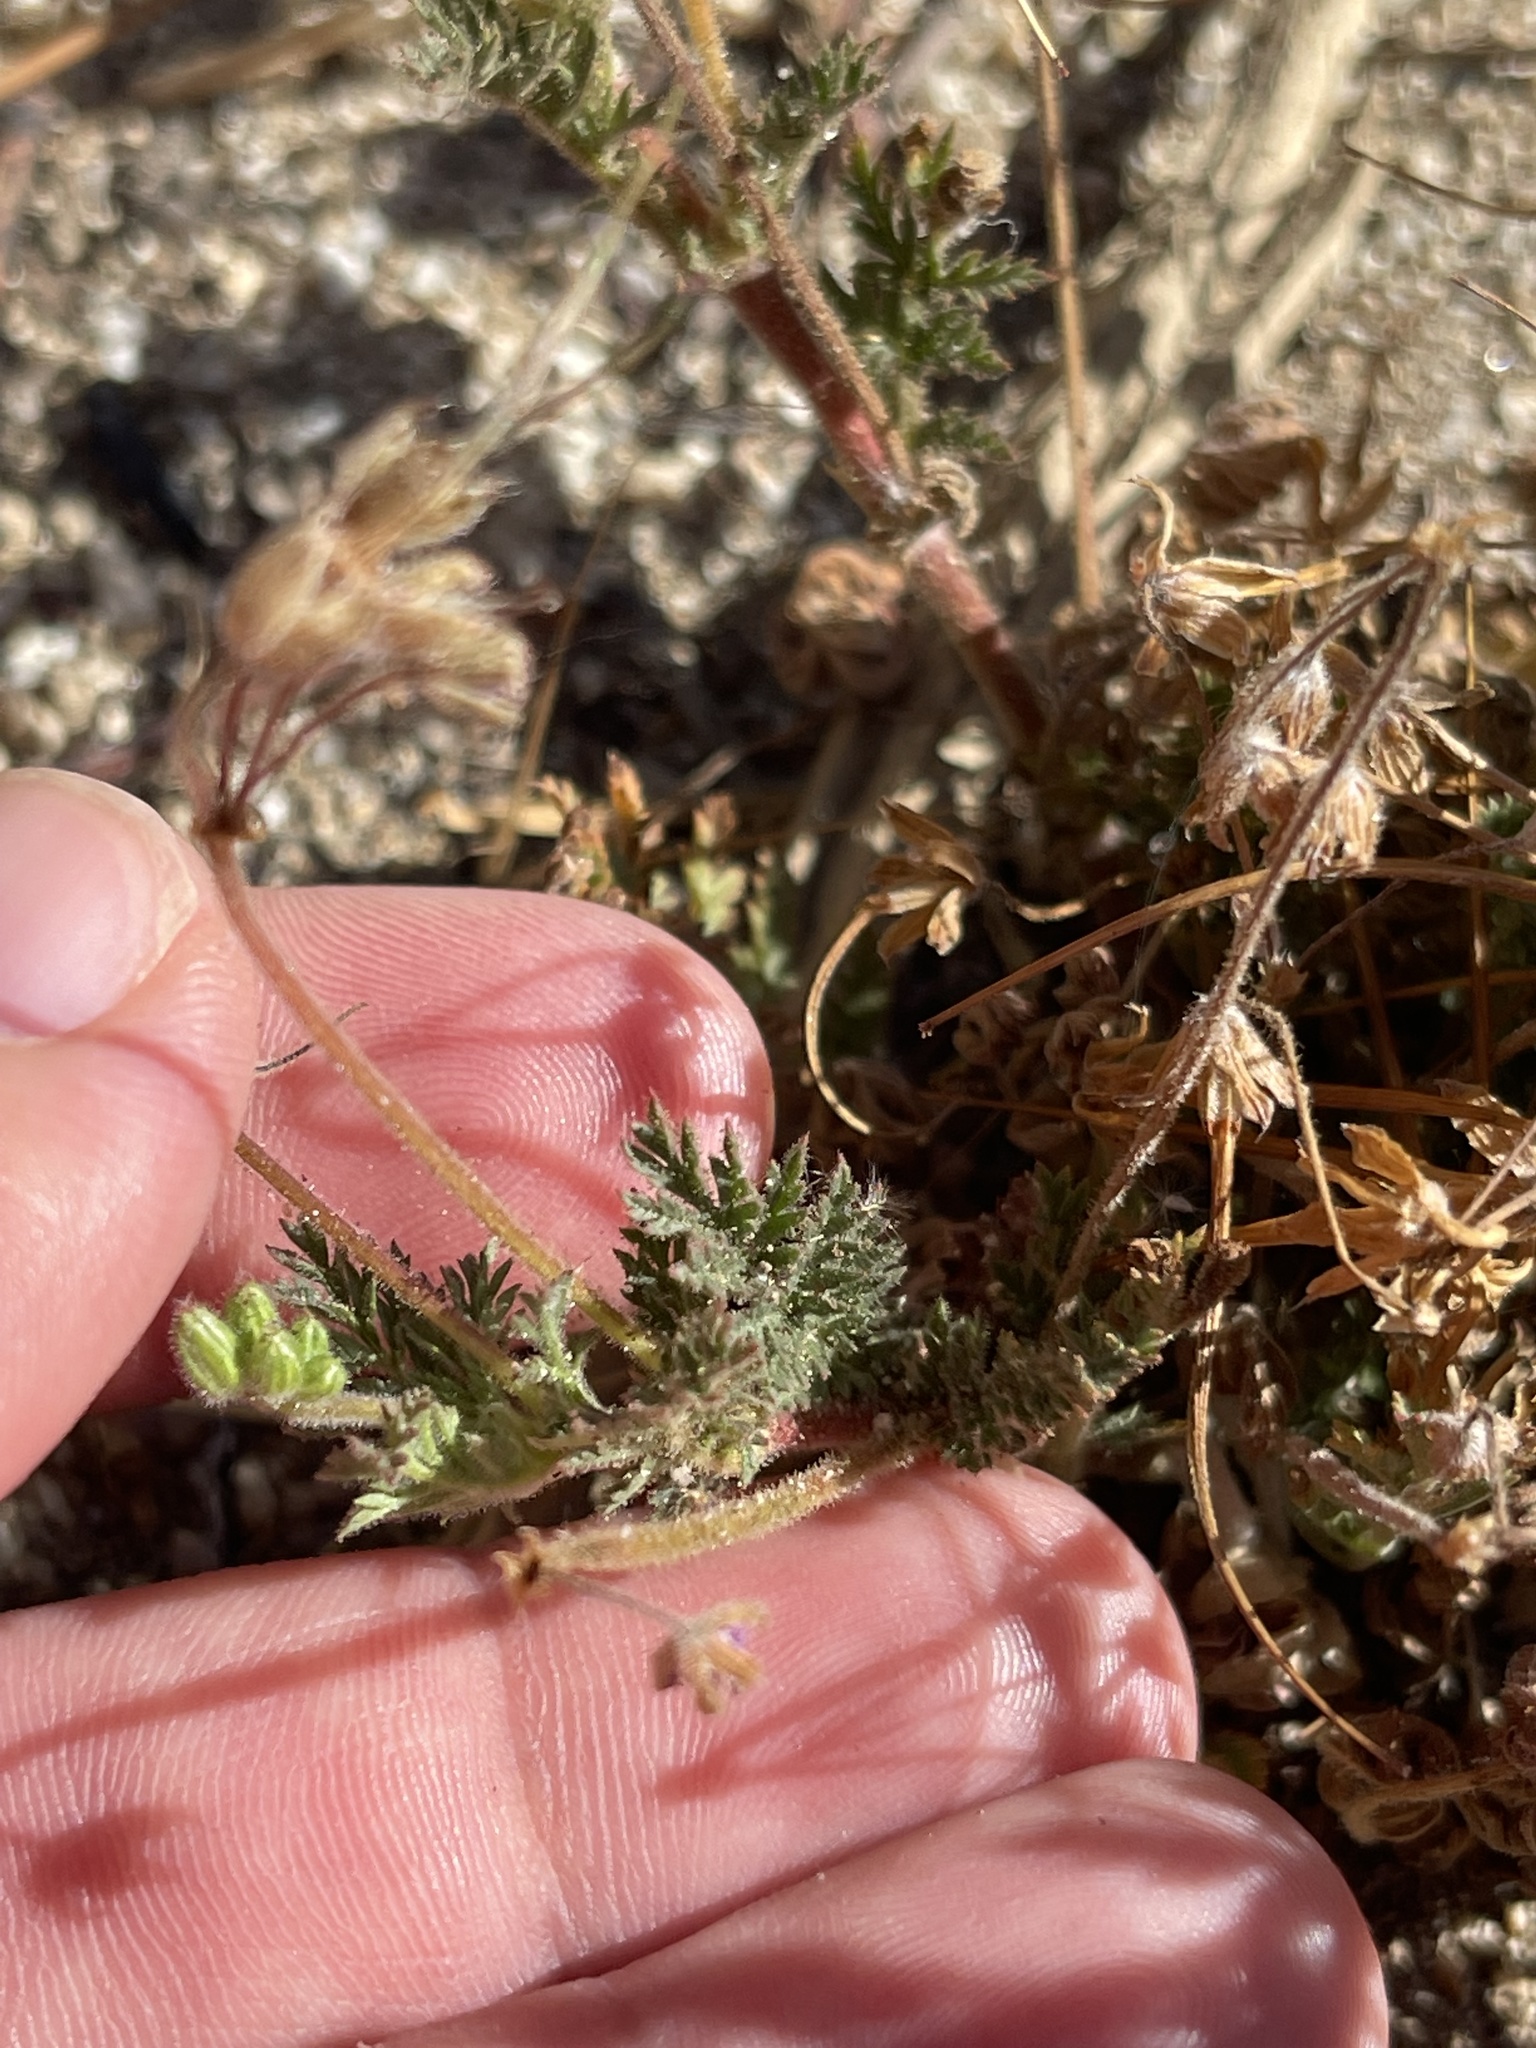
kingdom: Plantae
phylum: Tracheophyta
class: Magnoliopsida
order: Geraniales
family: Geraniaceae
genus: Erodium
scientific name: Erodium cicutarium
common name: Common stork's-bill
